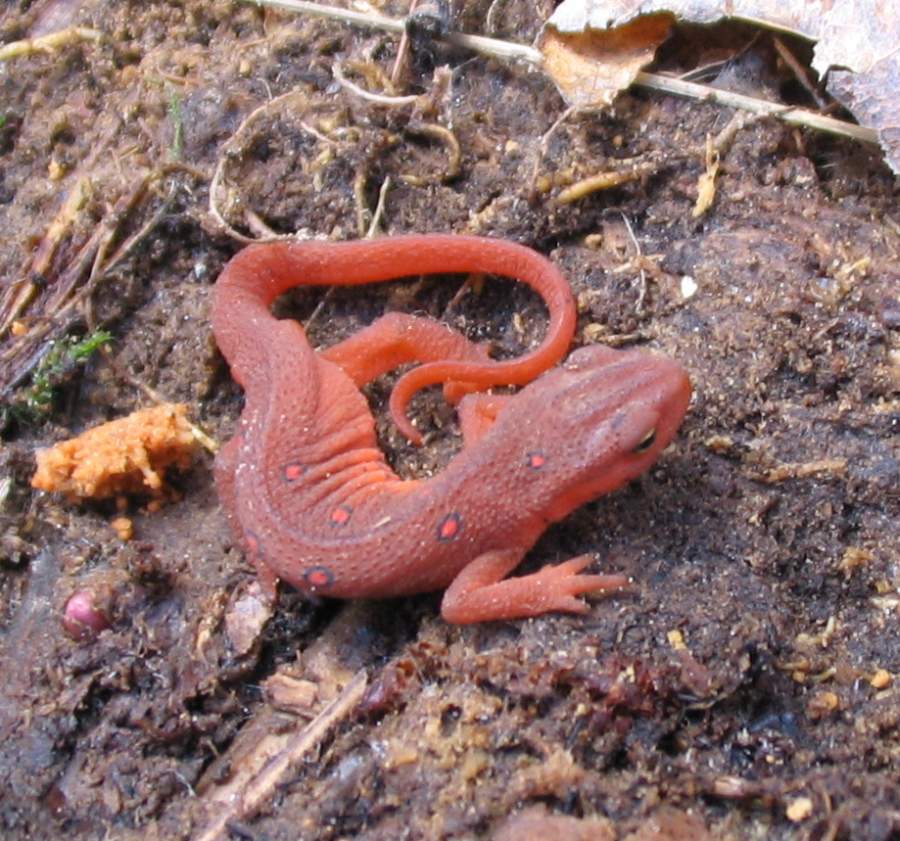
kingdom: Animalia
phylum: Chordata
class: Amphibia
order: Caudata
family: Salamandridae
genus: Notophthalmus
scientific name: Notophthalmus viridescens
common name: Eastern newt
